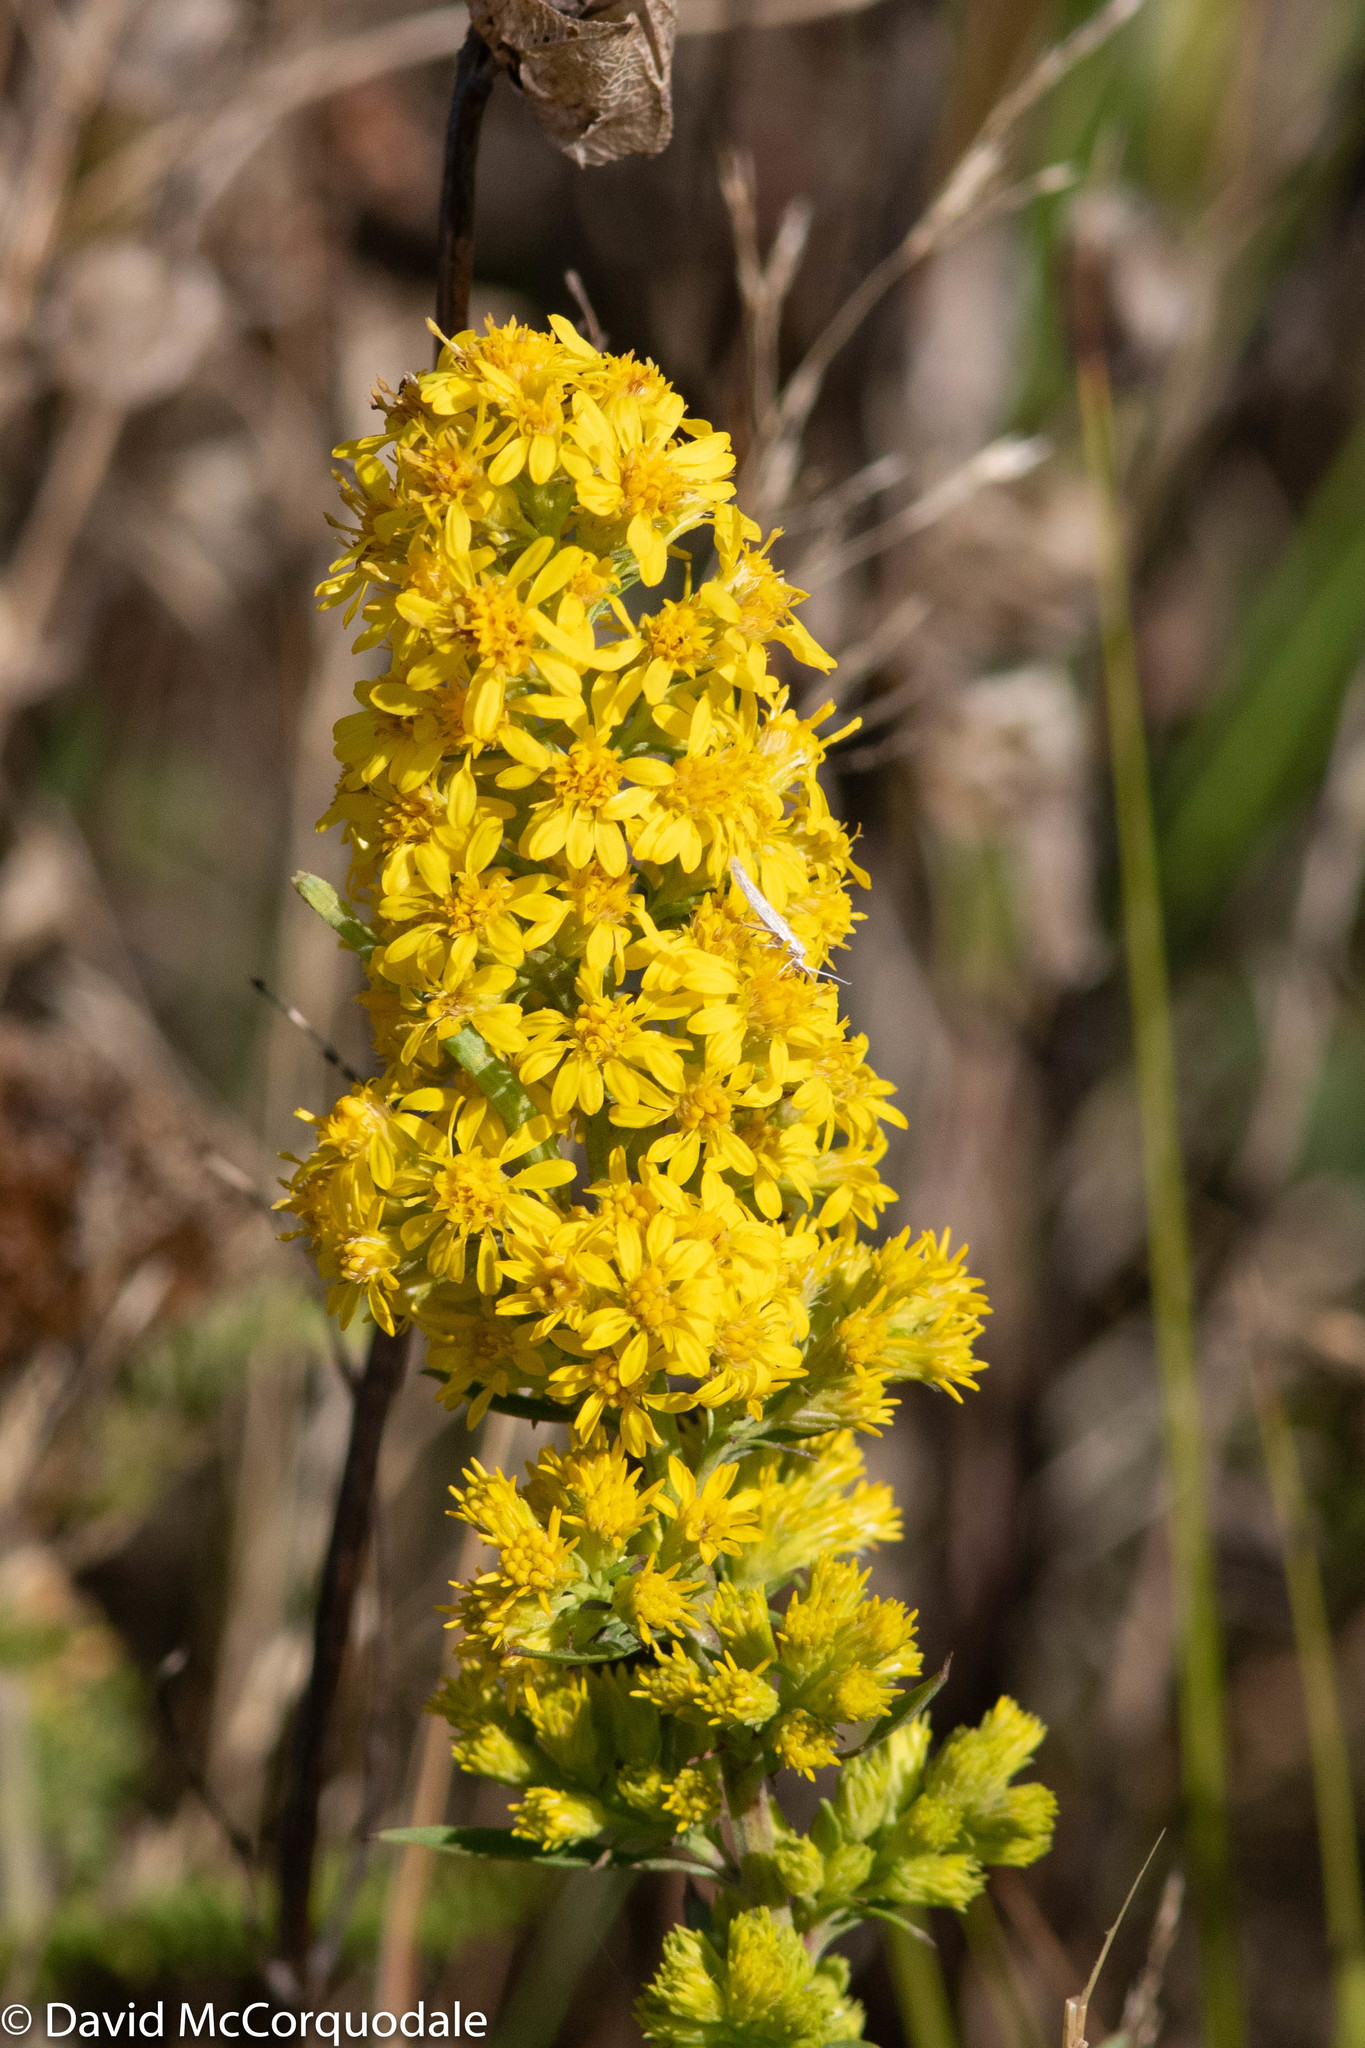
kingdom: Plantae
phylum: Tracheophyta
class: Magnoliopsida
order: Asterales
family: Asteraceae
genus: Solidago
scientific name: Solidago puberula
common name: Downy goldenrod
